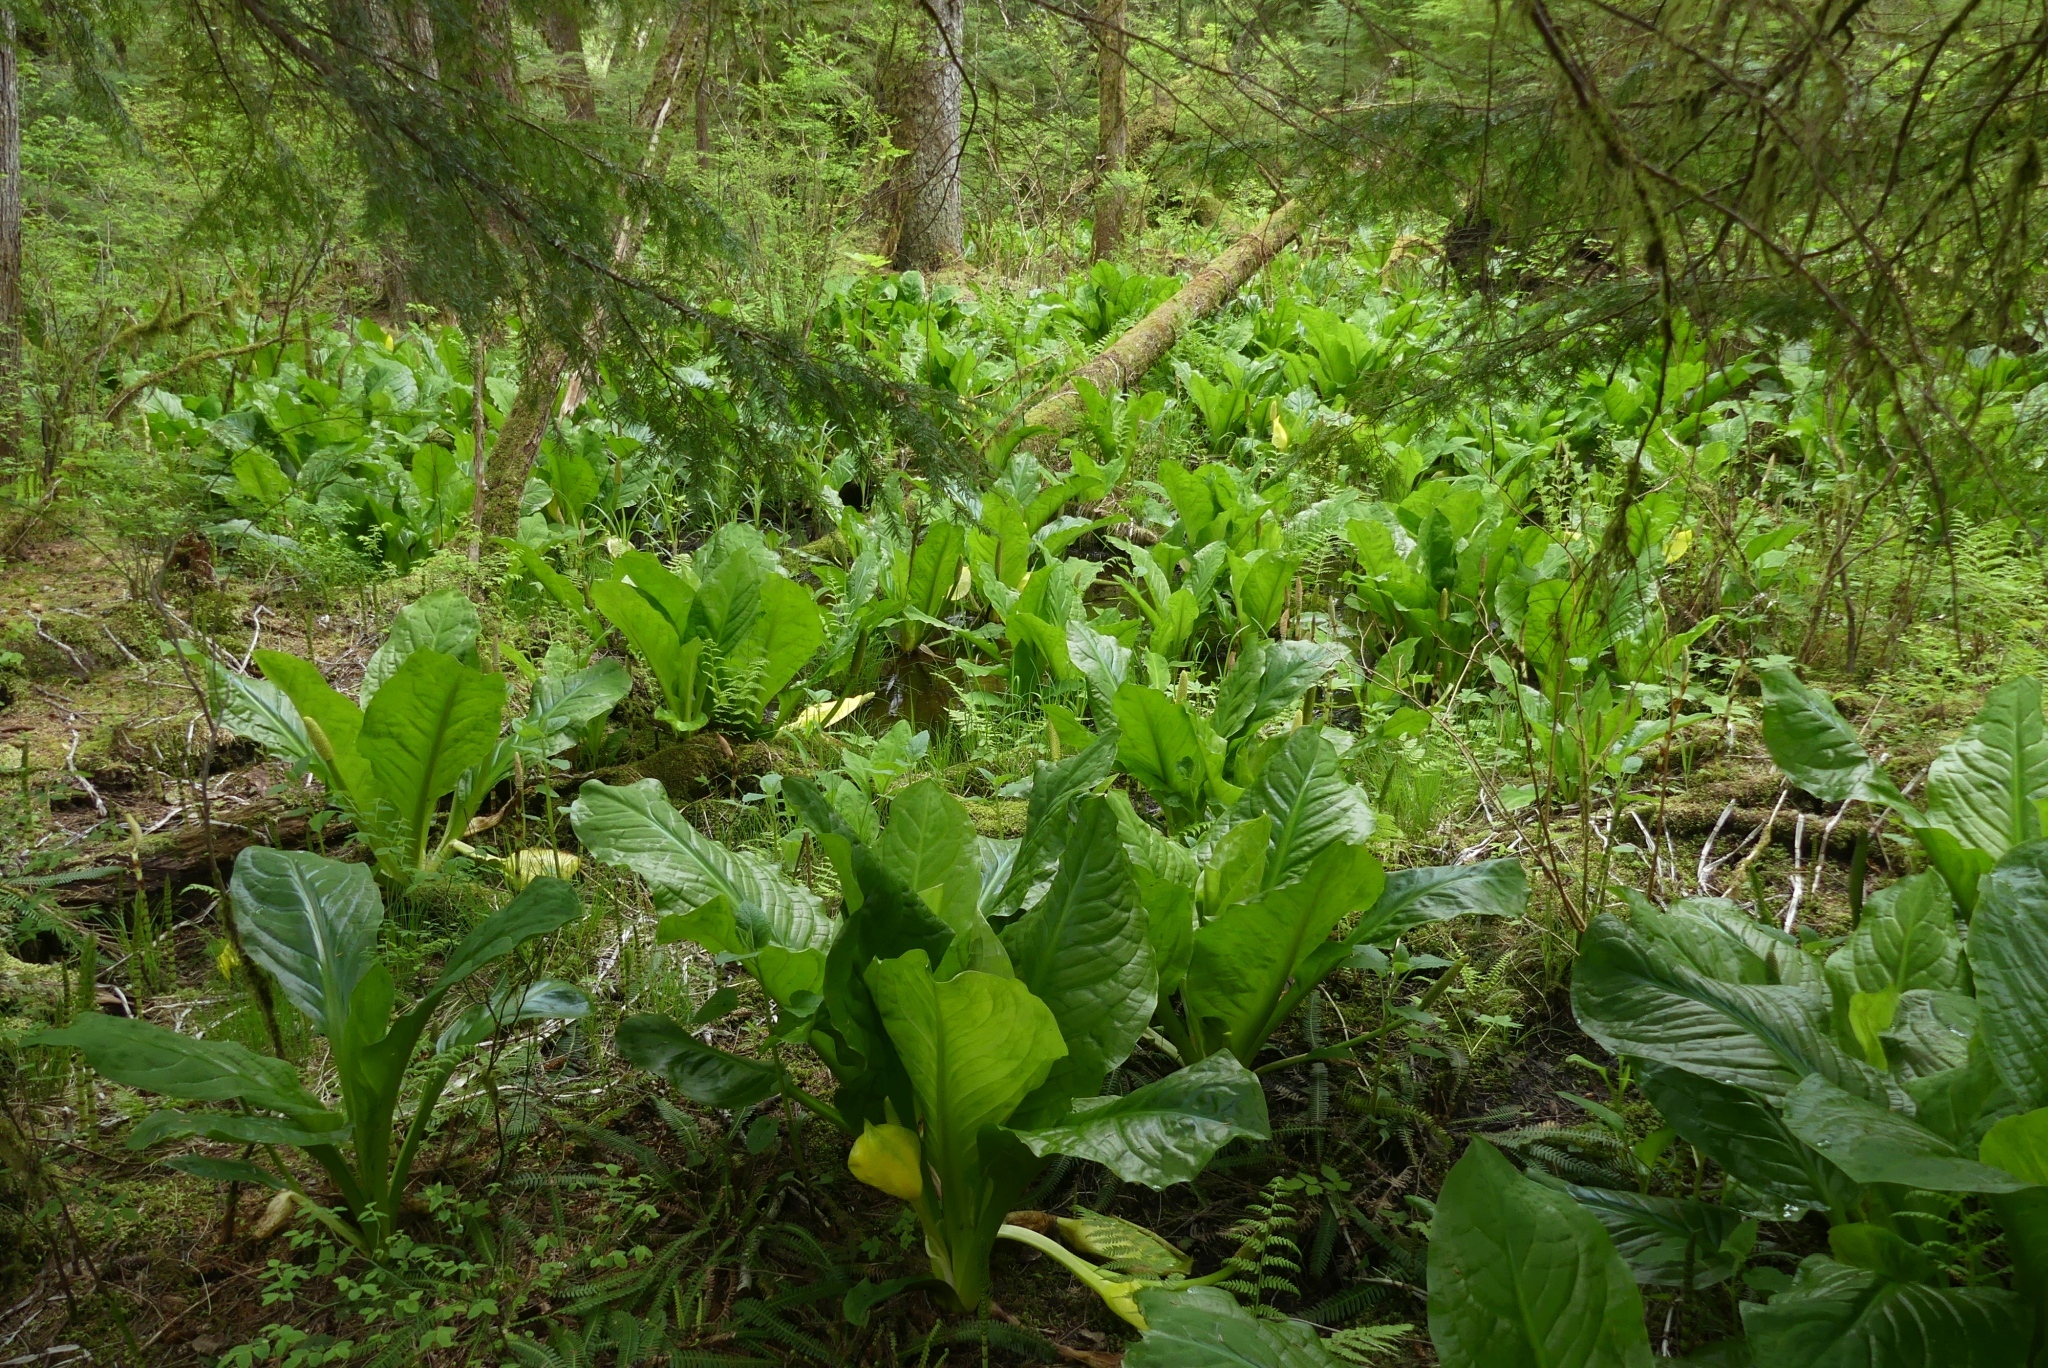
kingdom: Plantae
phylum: Tracheophyta
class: Liliopsida
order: Alismatales
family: Araceae
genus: Lysichiton
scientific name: Lysichiton americanus
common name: American skunk cabbage
